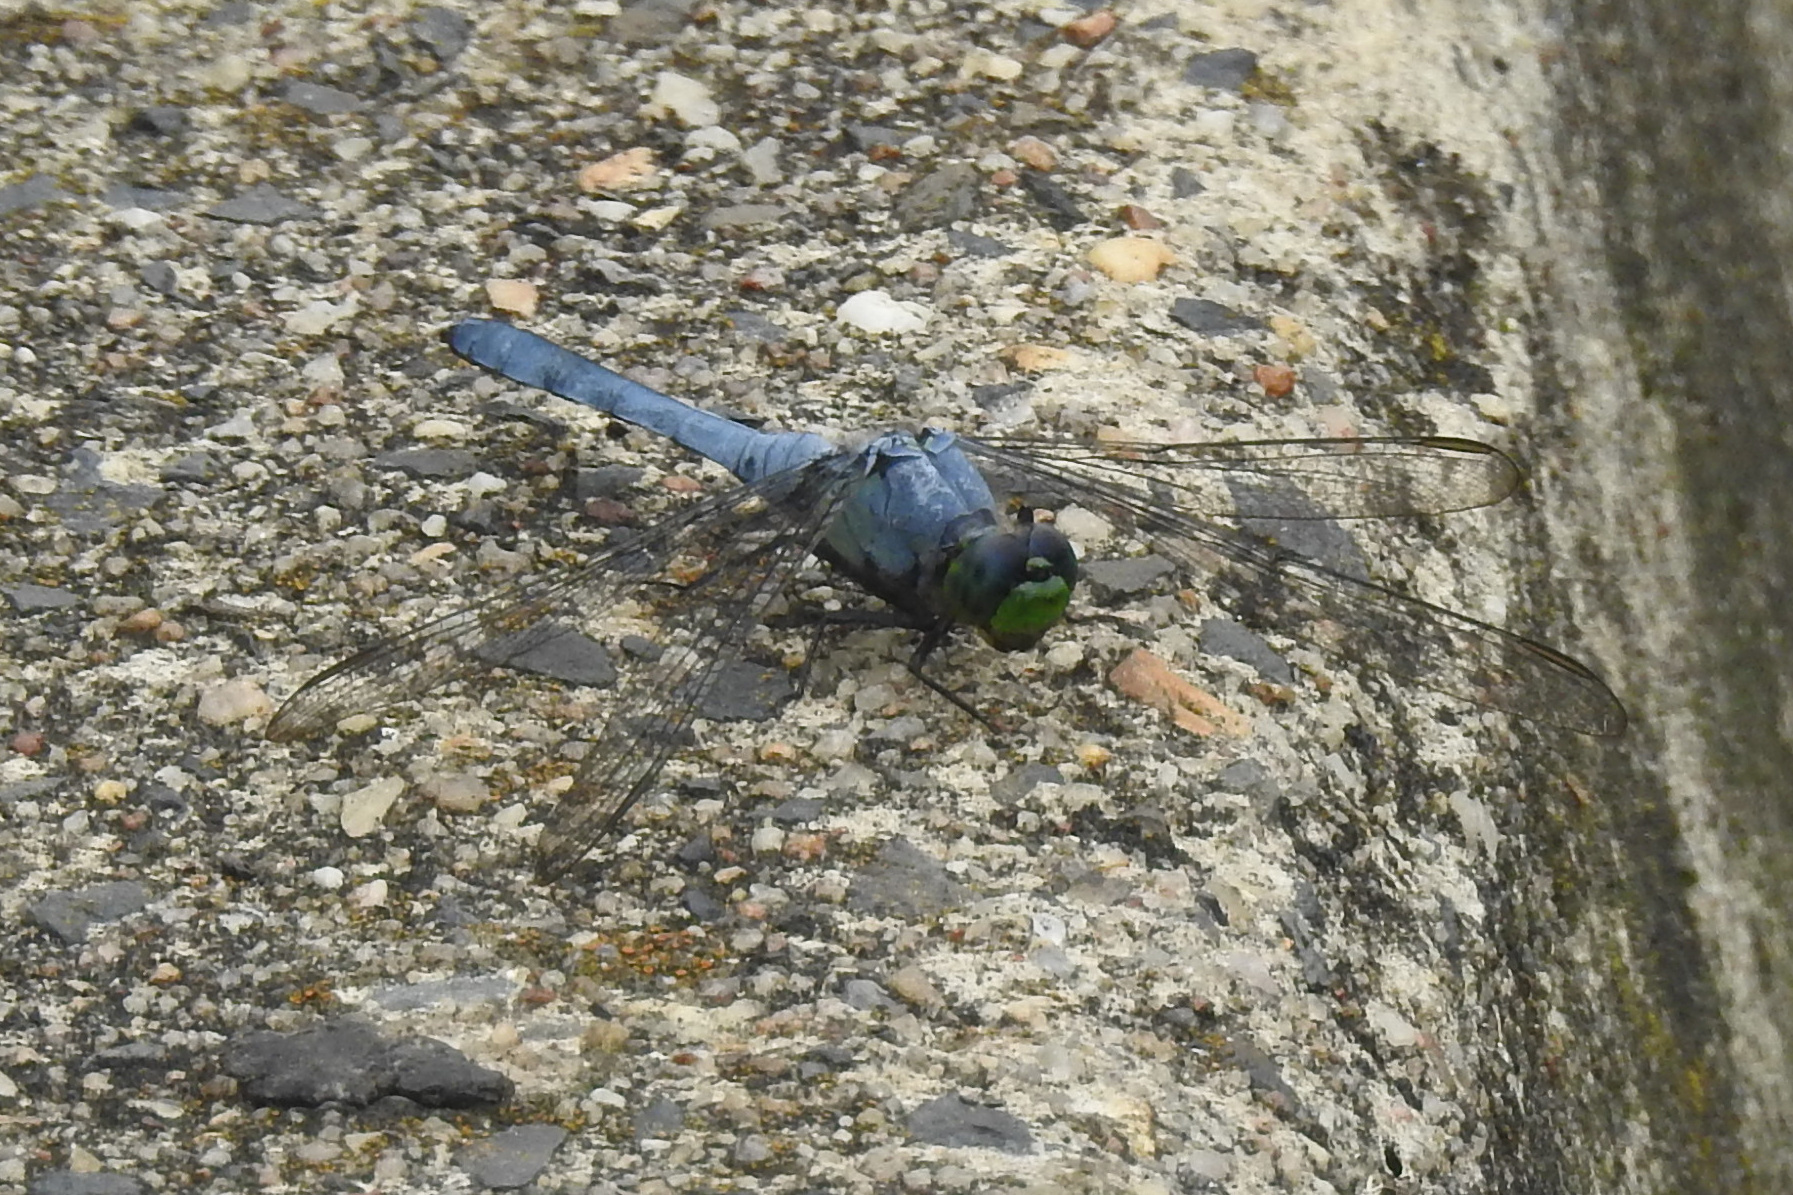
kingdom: Animalia
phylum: Arthropoda
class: Insecta
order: Odonata
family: Libellulidae
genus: Erythemis
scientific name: Erythemis simplicicollis
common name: Eastern pondhawk
